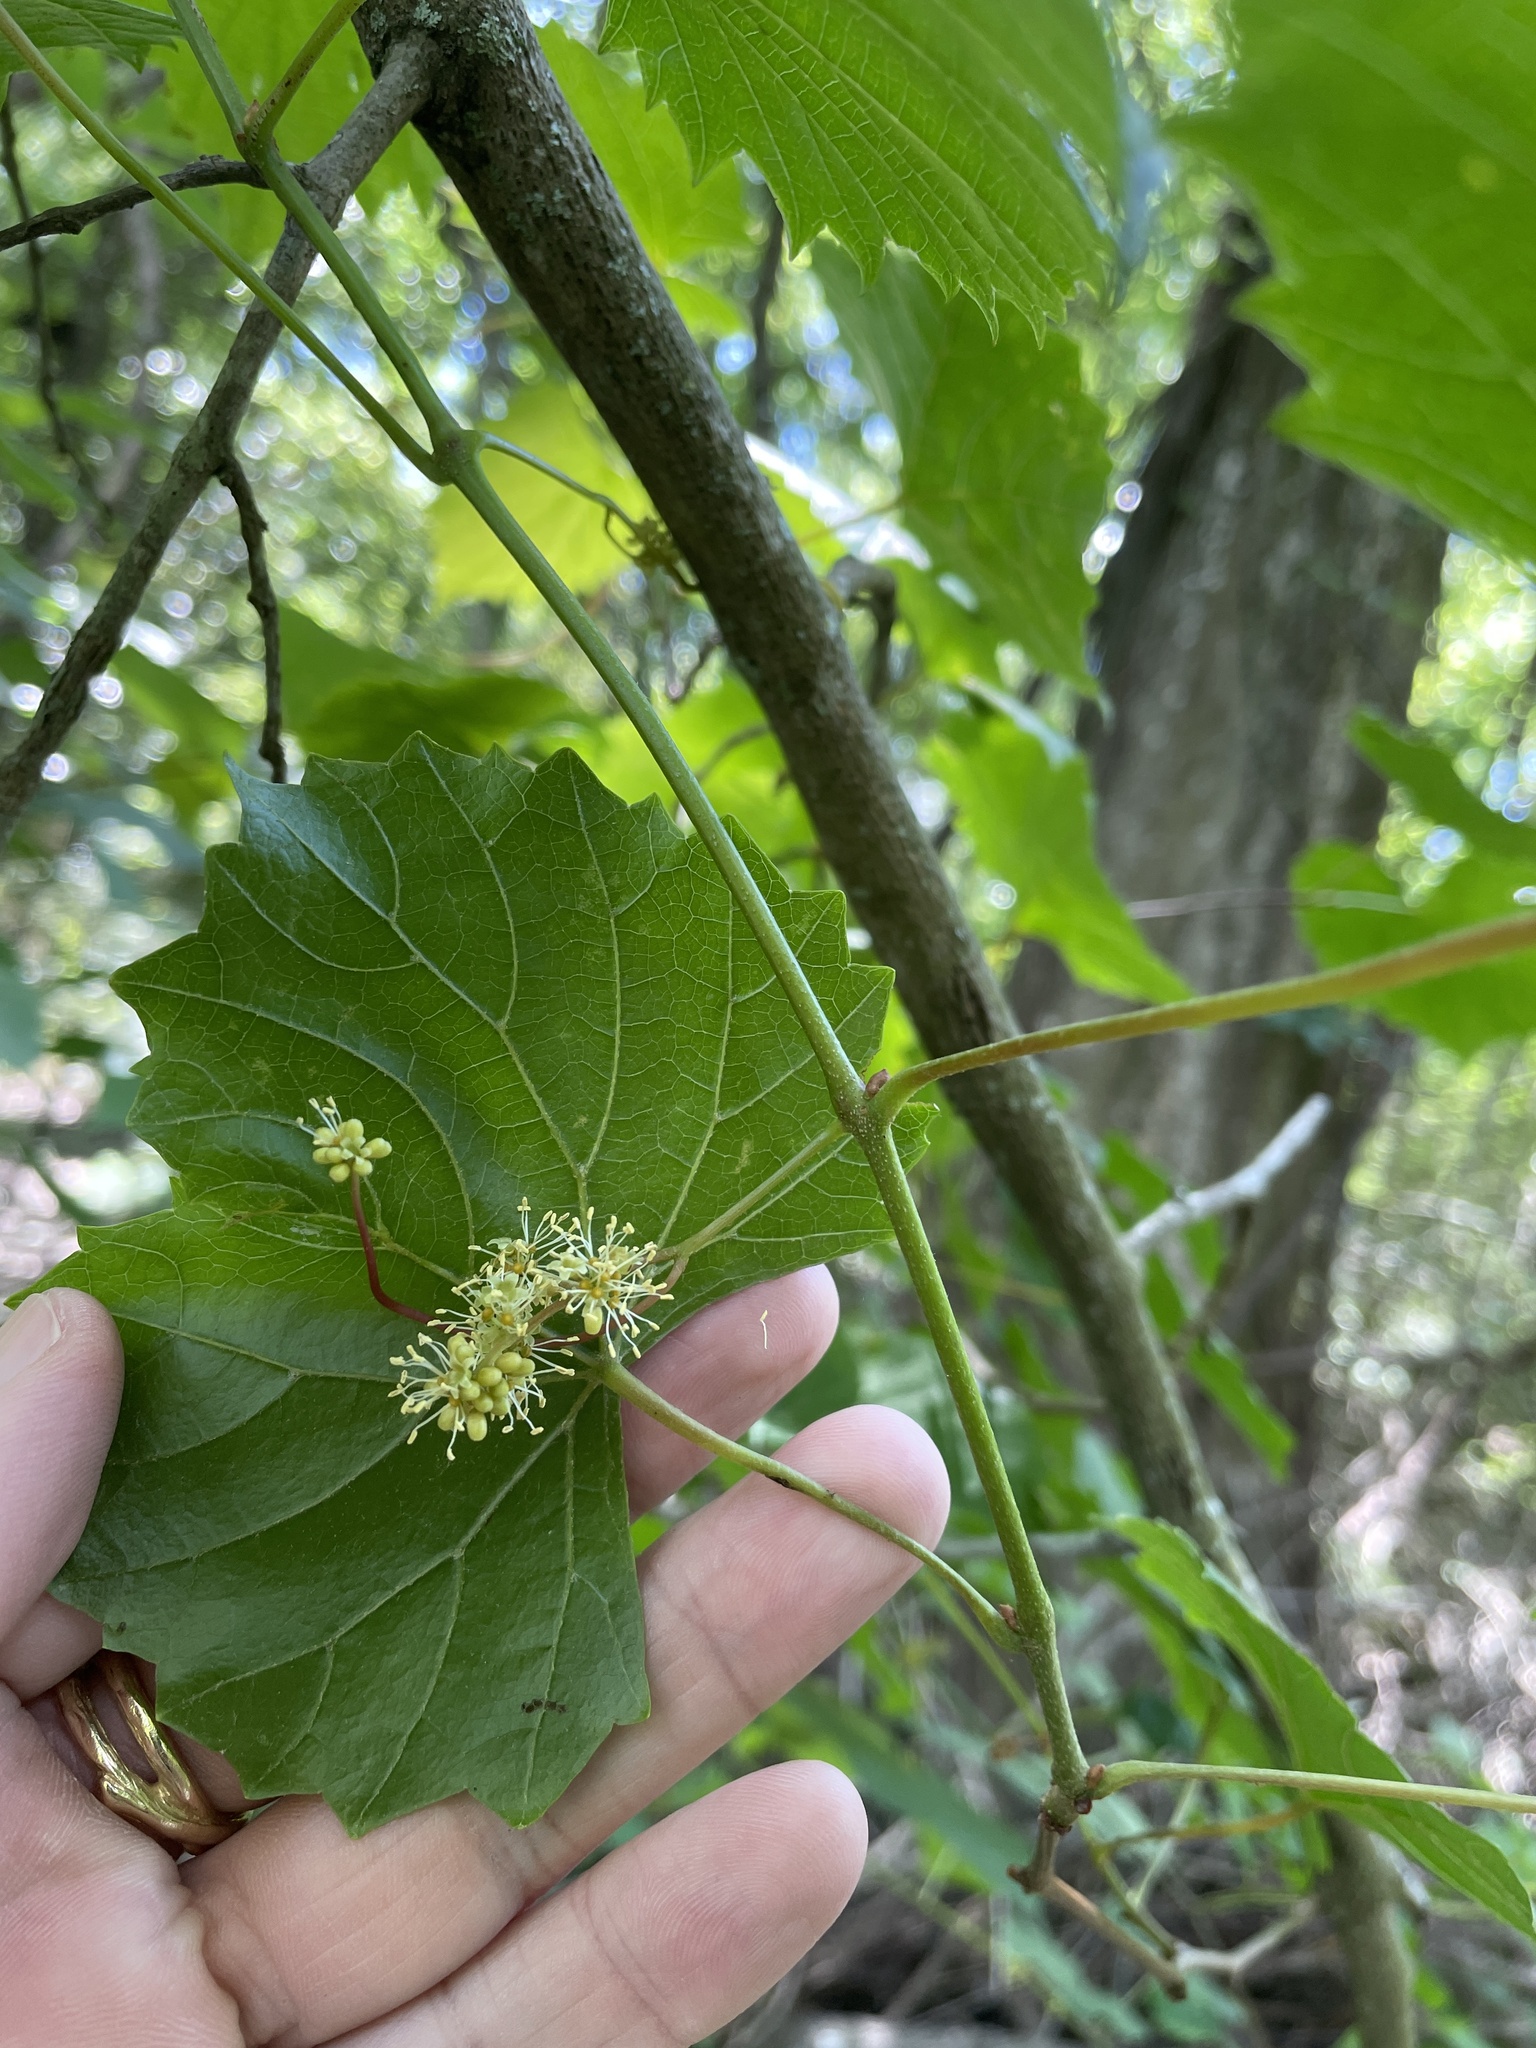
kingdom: Plantae
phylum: Tracheophyta
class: Magnoliopsida
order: Vitales
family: Vitaceae
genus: Vitis
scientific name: Vitis rotundifolia
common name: Muscadine grape
